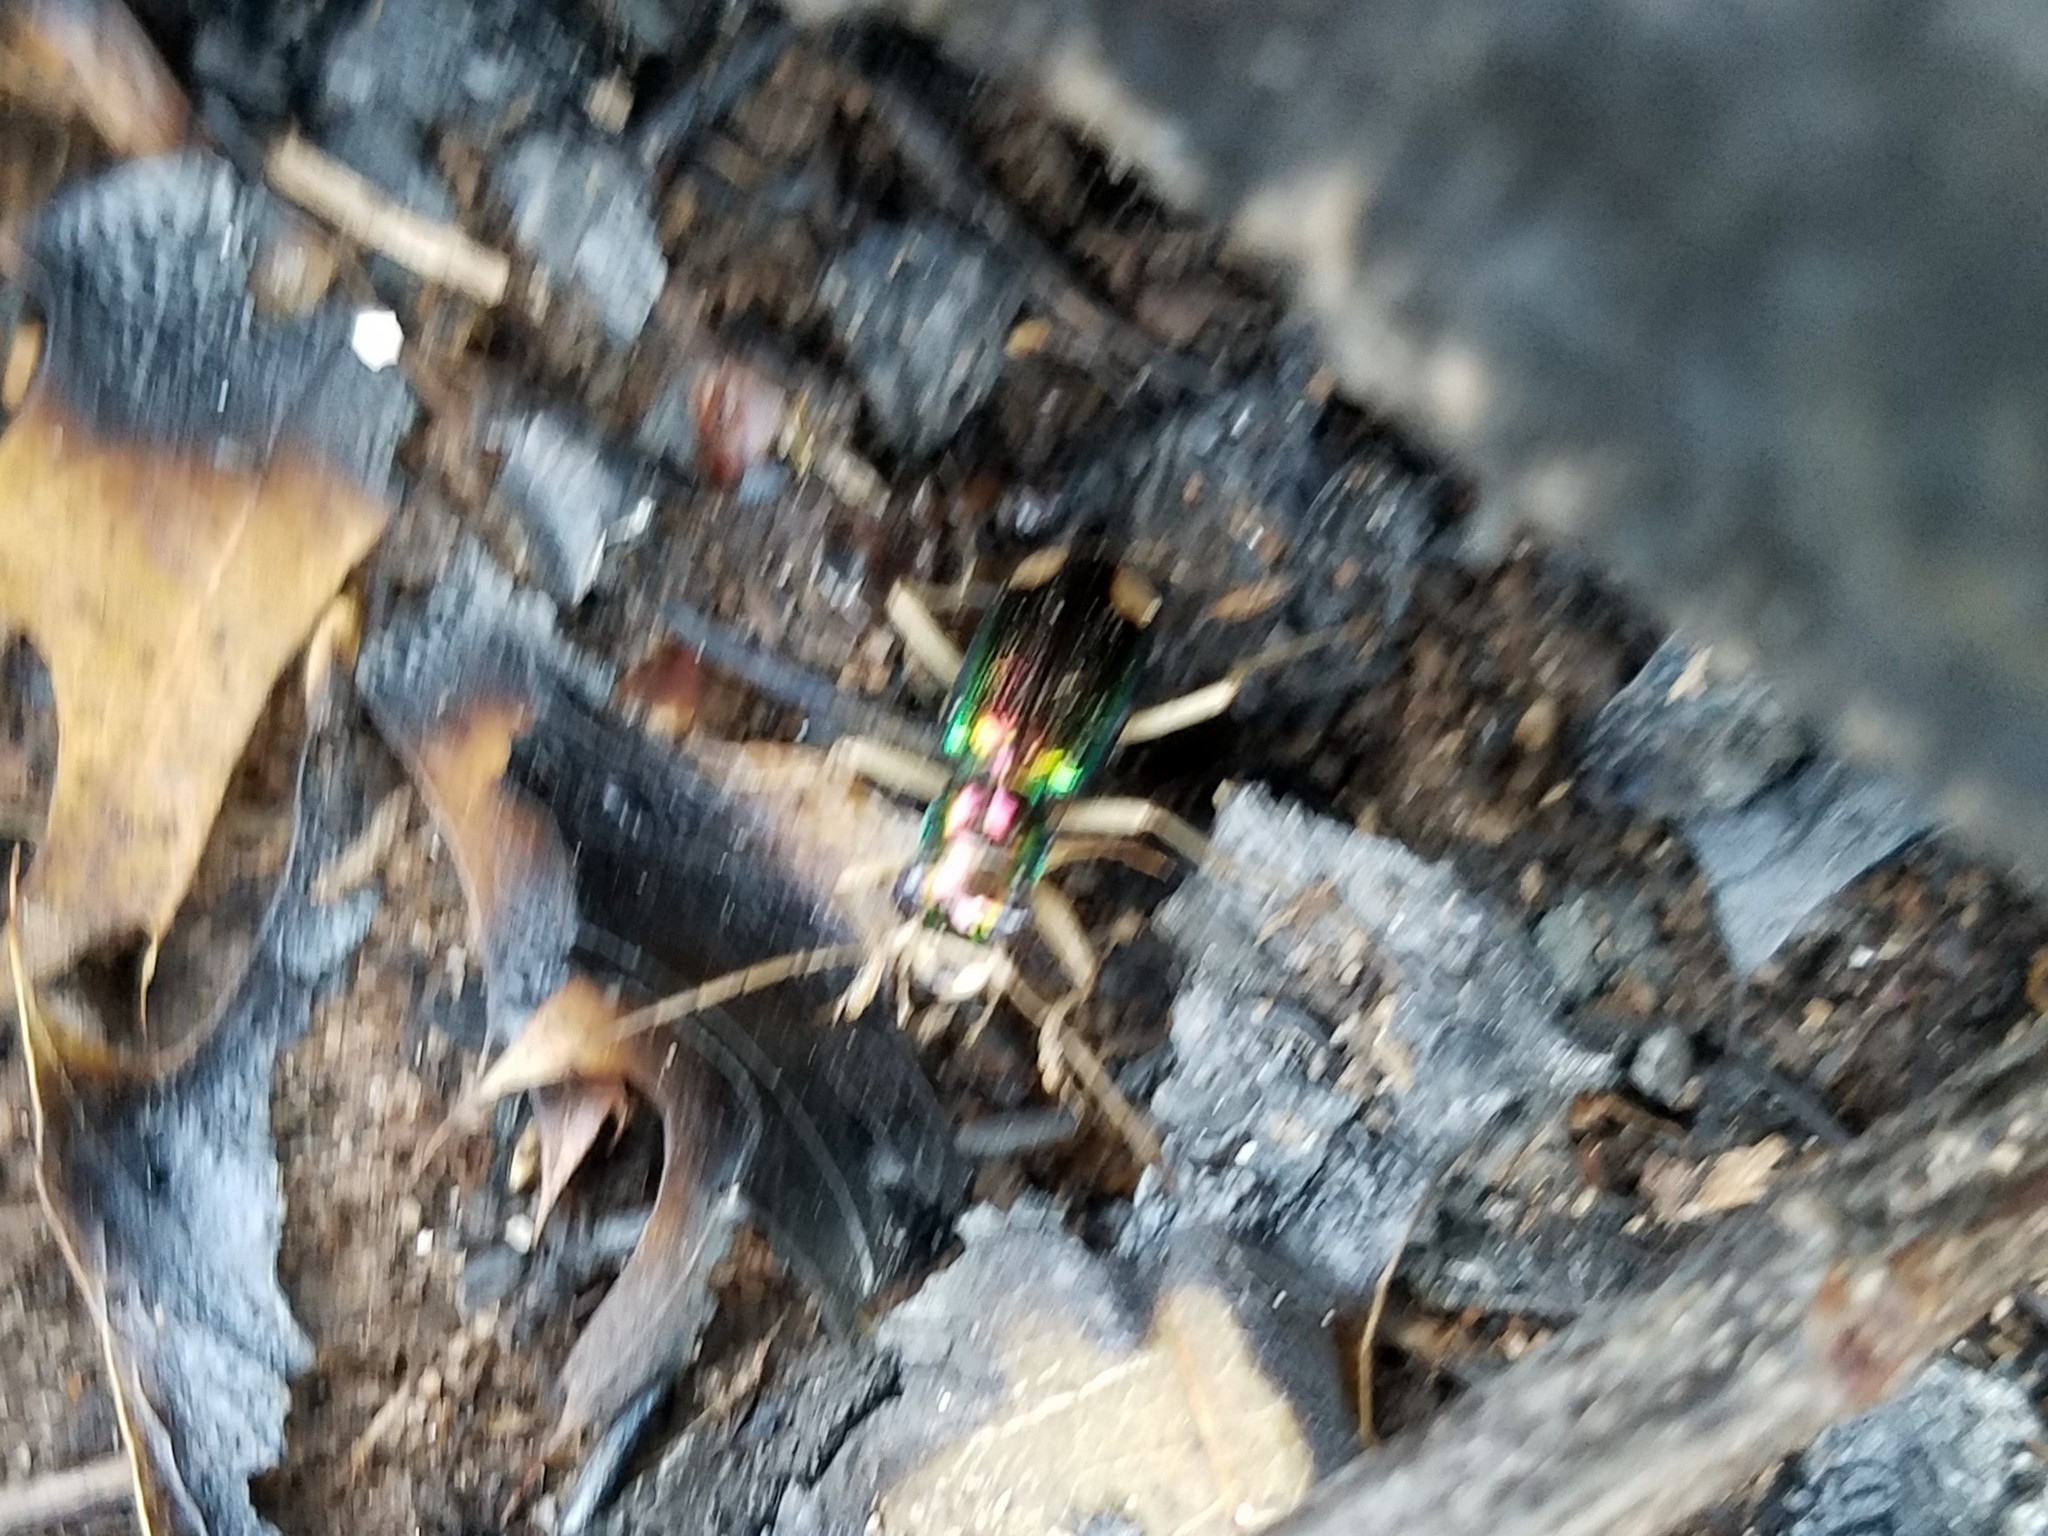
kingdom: Animalia
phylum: Arthropoda
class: Insecta
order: Coleoptera
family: Carabidae
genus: Tetracha
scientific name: Tetracha carolina
